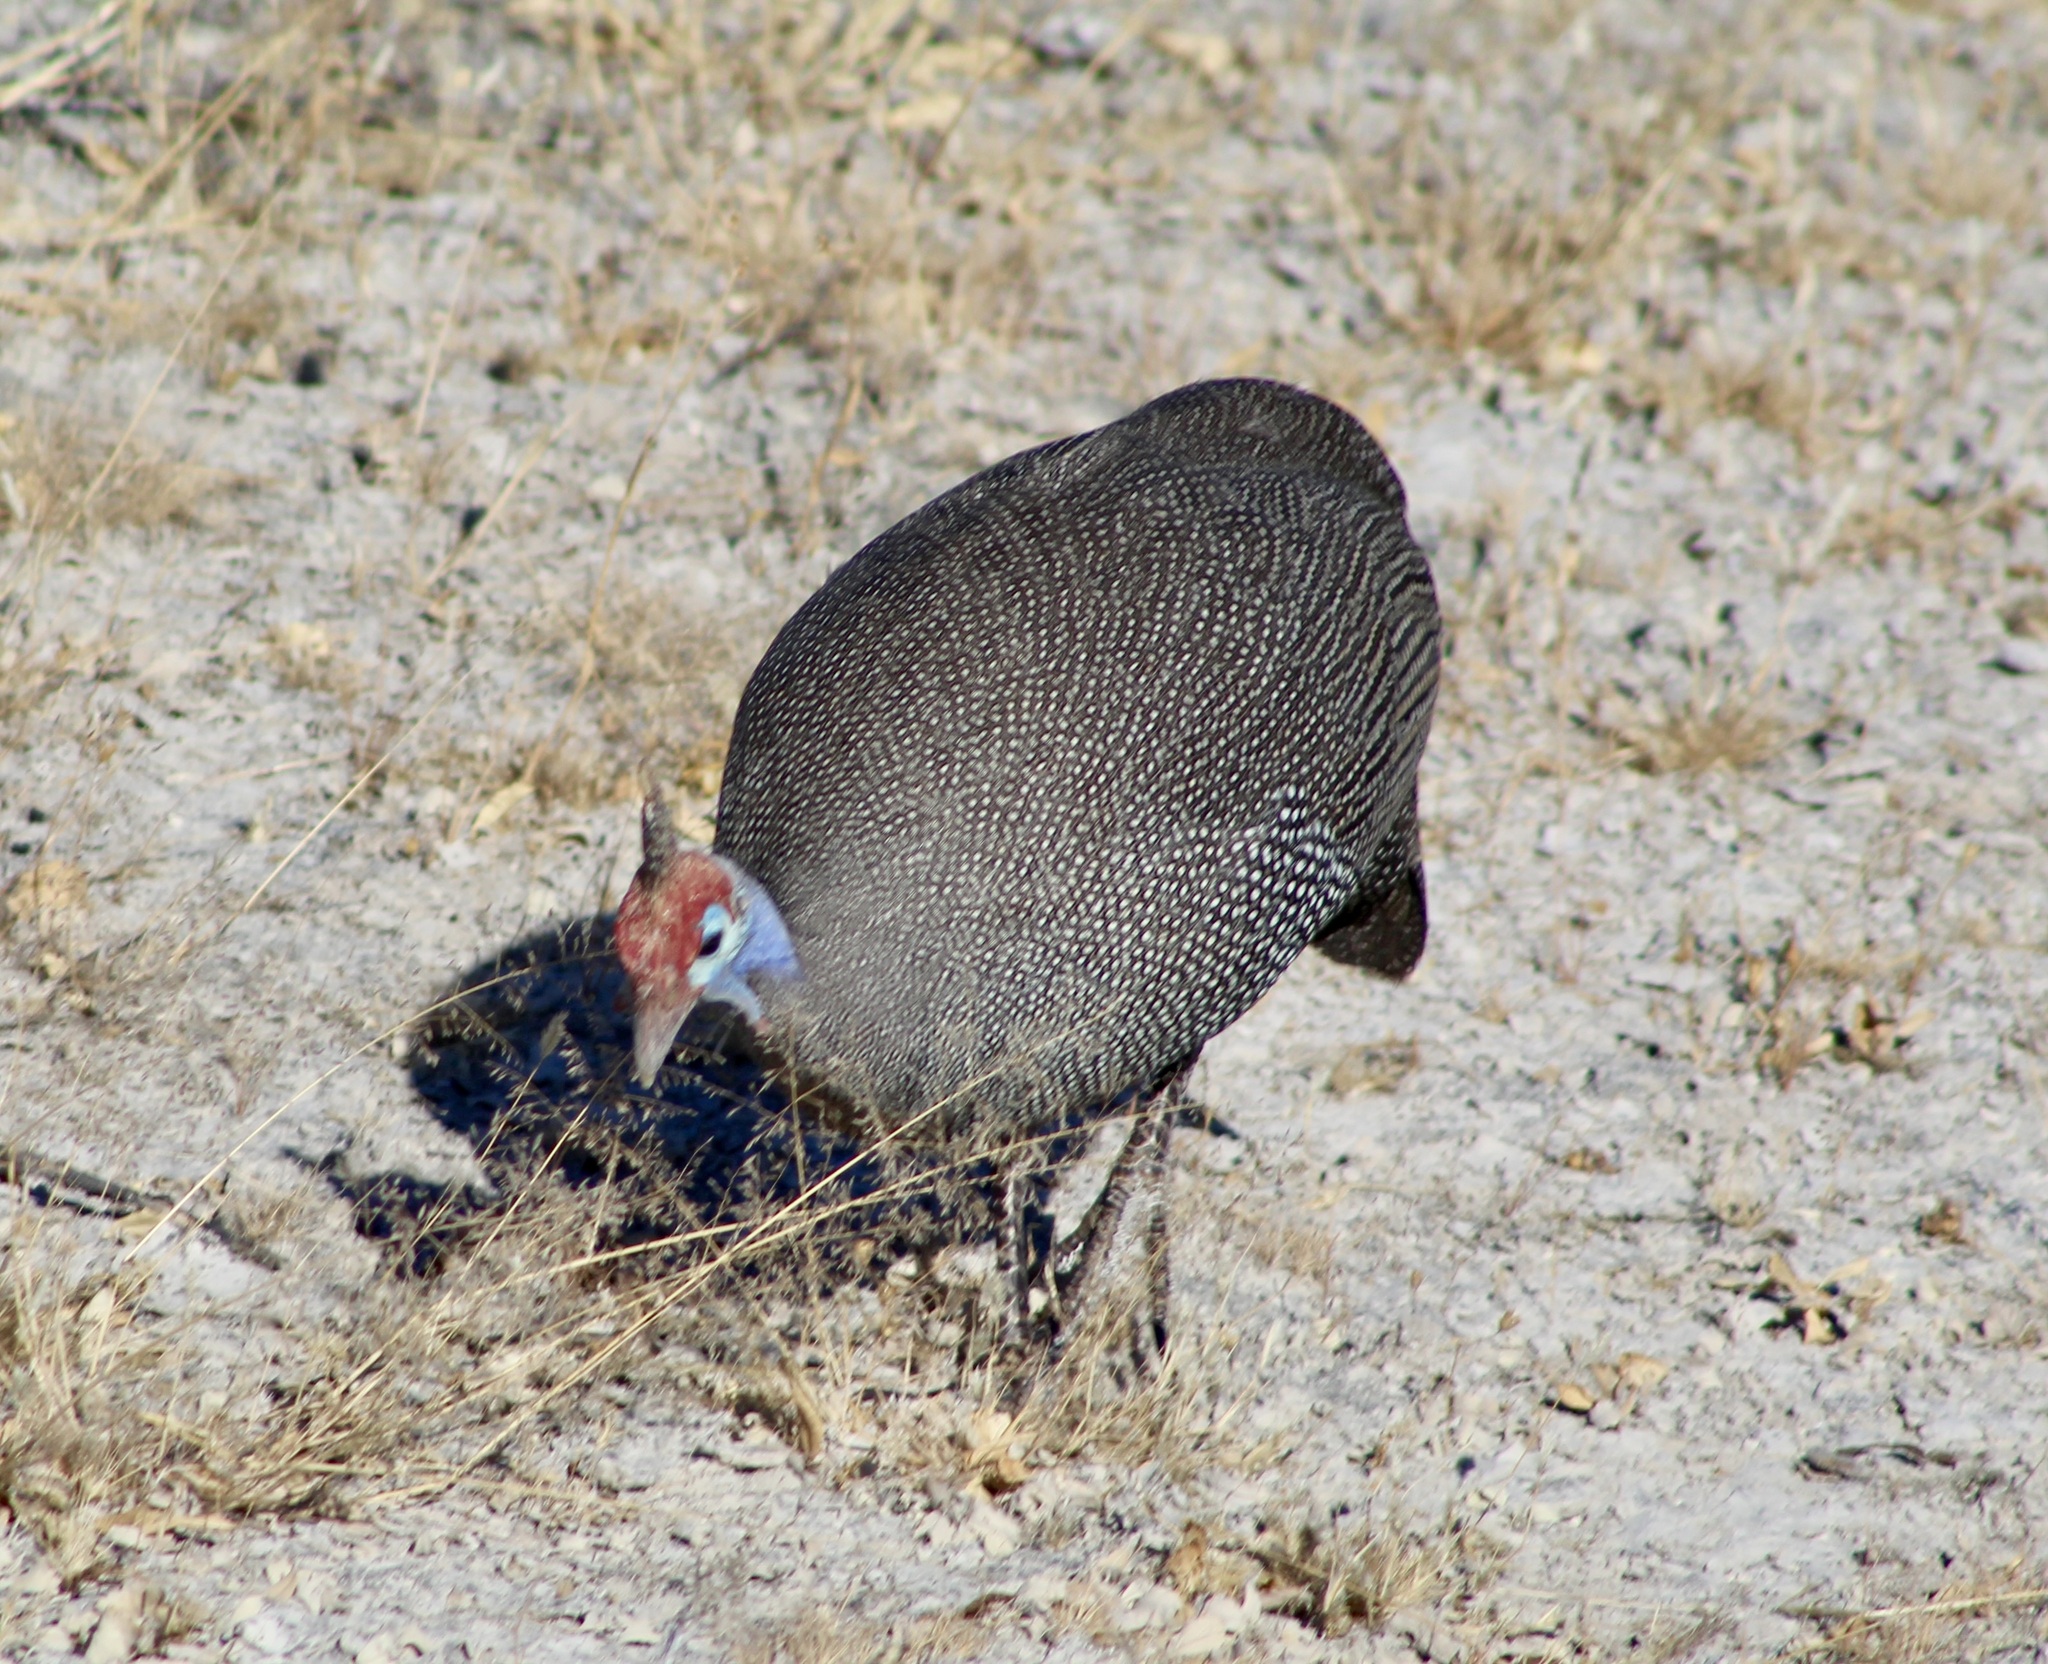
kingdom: Animalia
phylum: Chordata
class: Aves
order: Galliformes
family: Numididae
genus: Numida
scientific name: Numida meleagris
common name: Helmeted guineafowl
